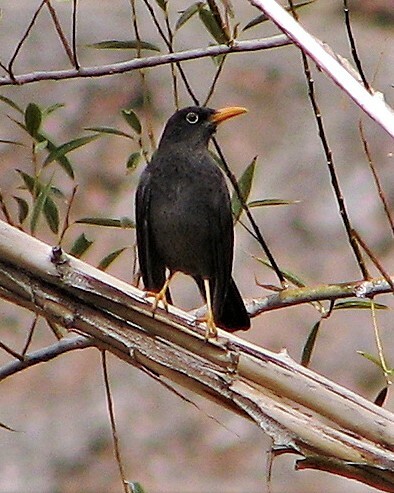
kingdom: Animalia
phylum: Chordata
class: Aves
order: Passeriformes
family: Turdidae
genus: Turdus
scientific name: Turdus chiguanco
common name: Chiguanco thrush
